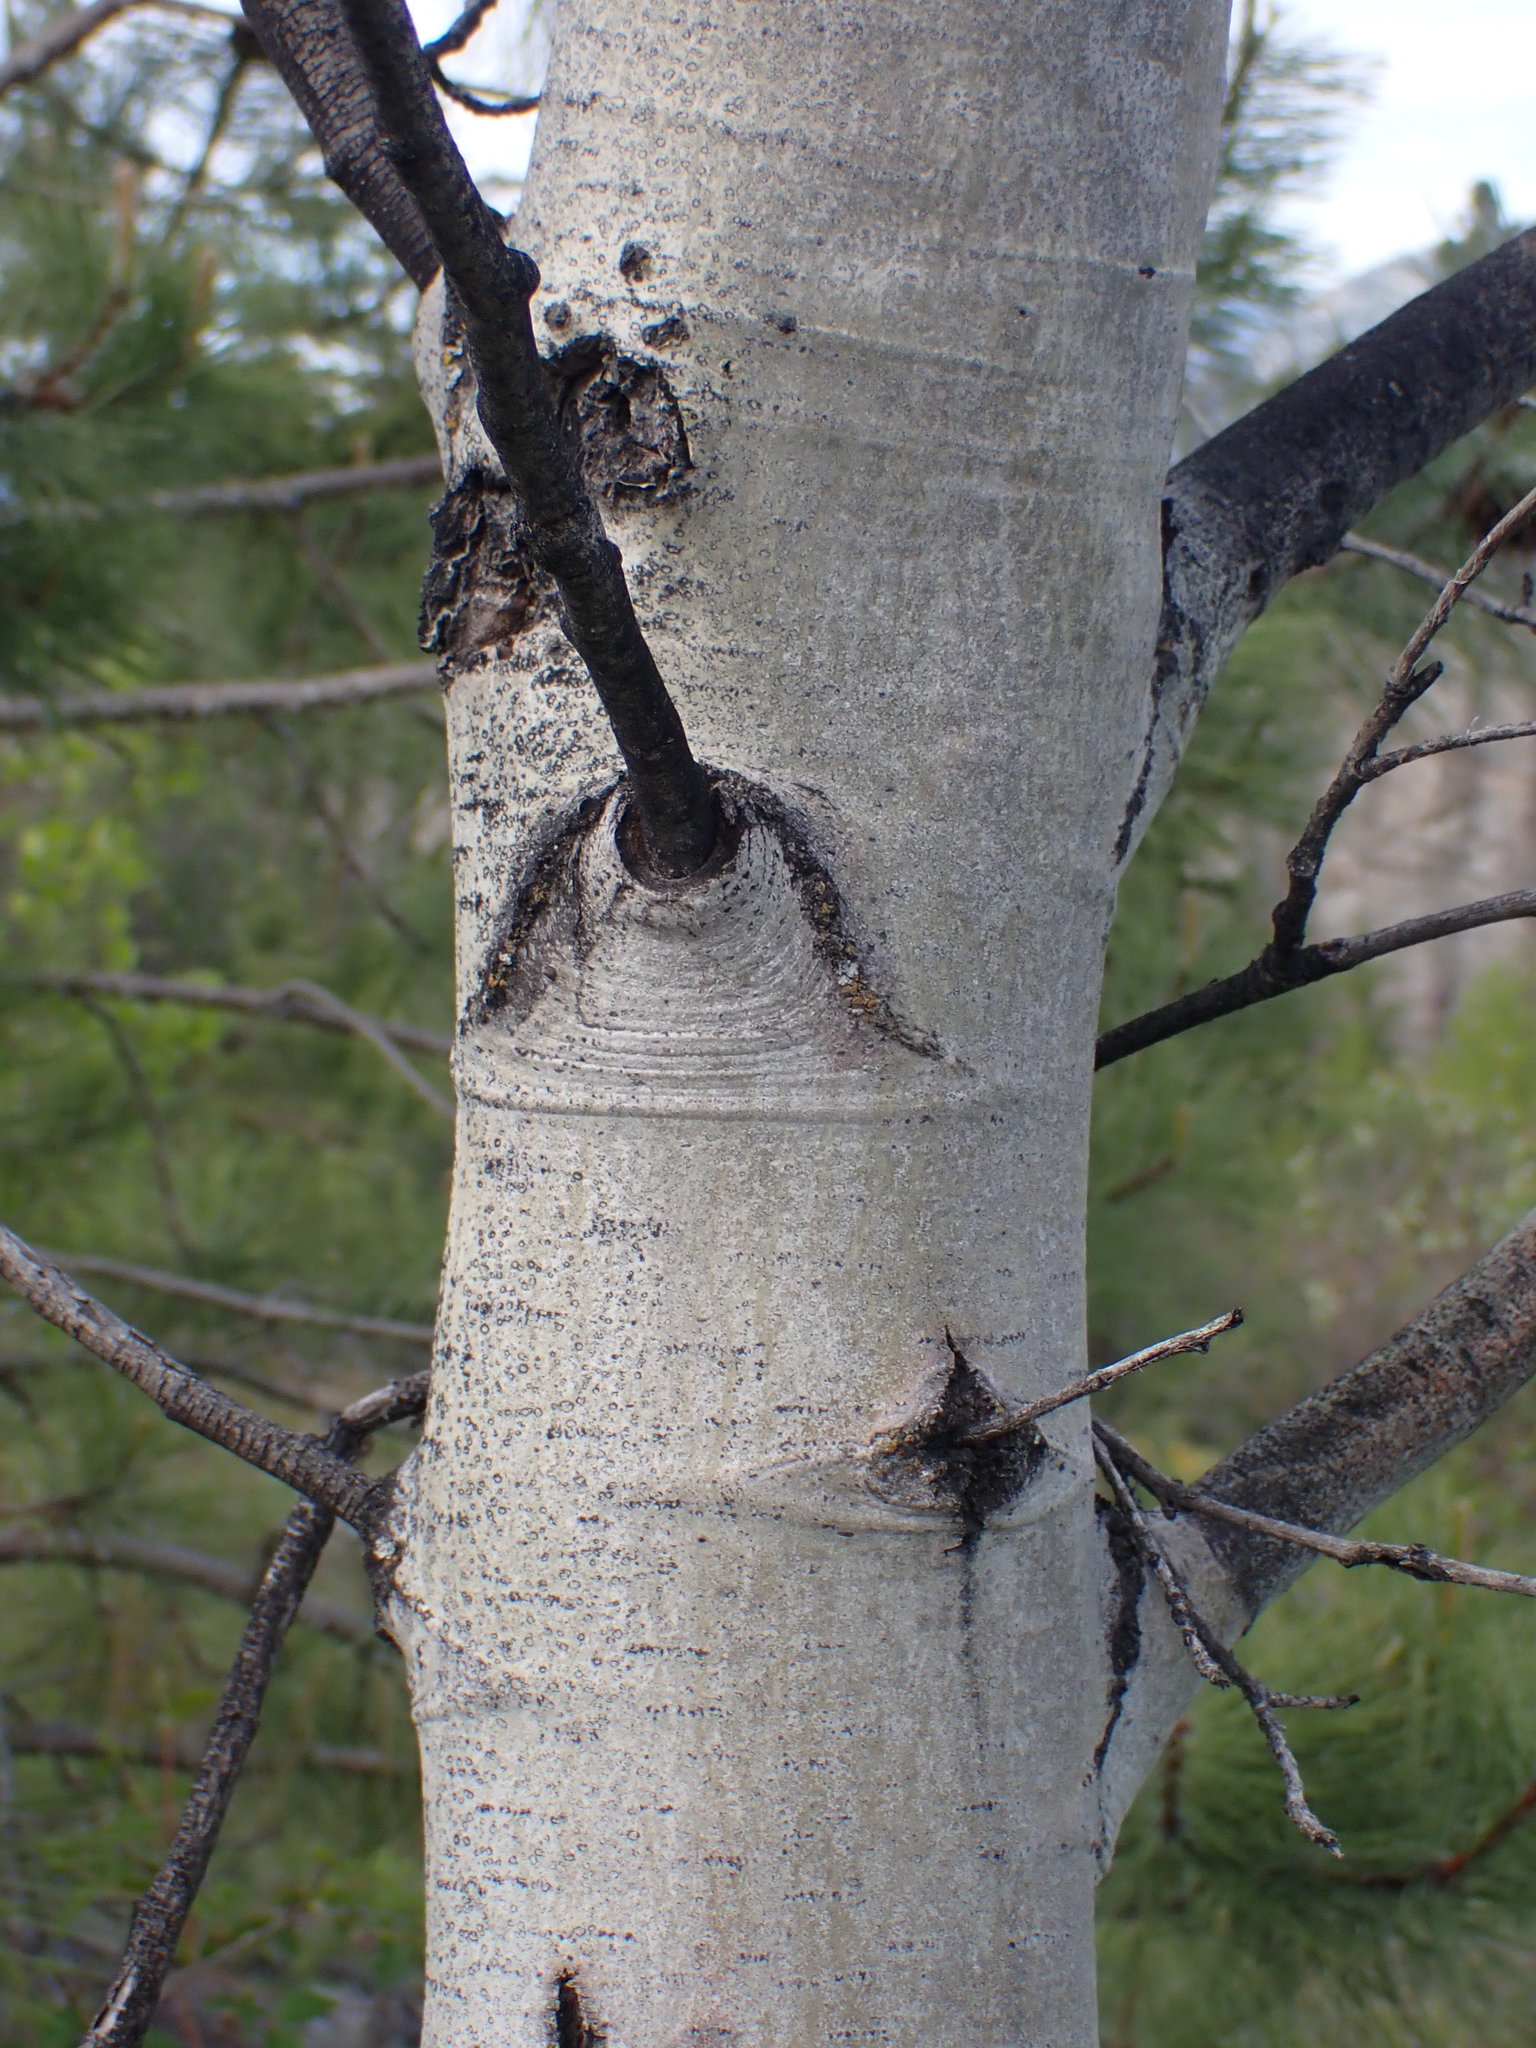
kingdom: Plantae
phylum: Tracheophyta
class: Magnoliopsida
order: Malpighiales
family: Salicaceae
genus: Populus
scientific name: Populus tremuloides
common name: Quaking aspen
